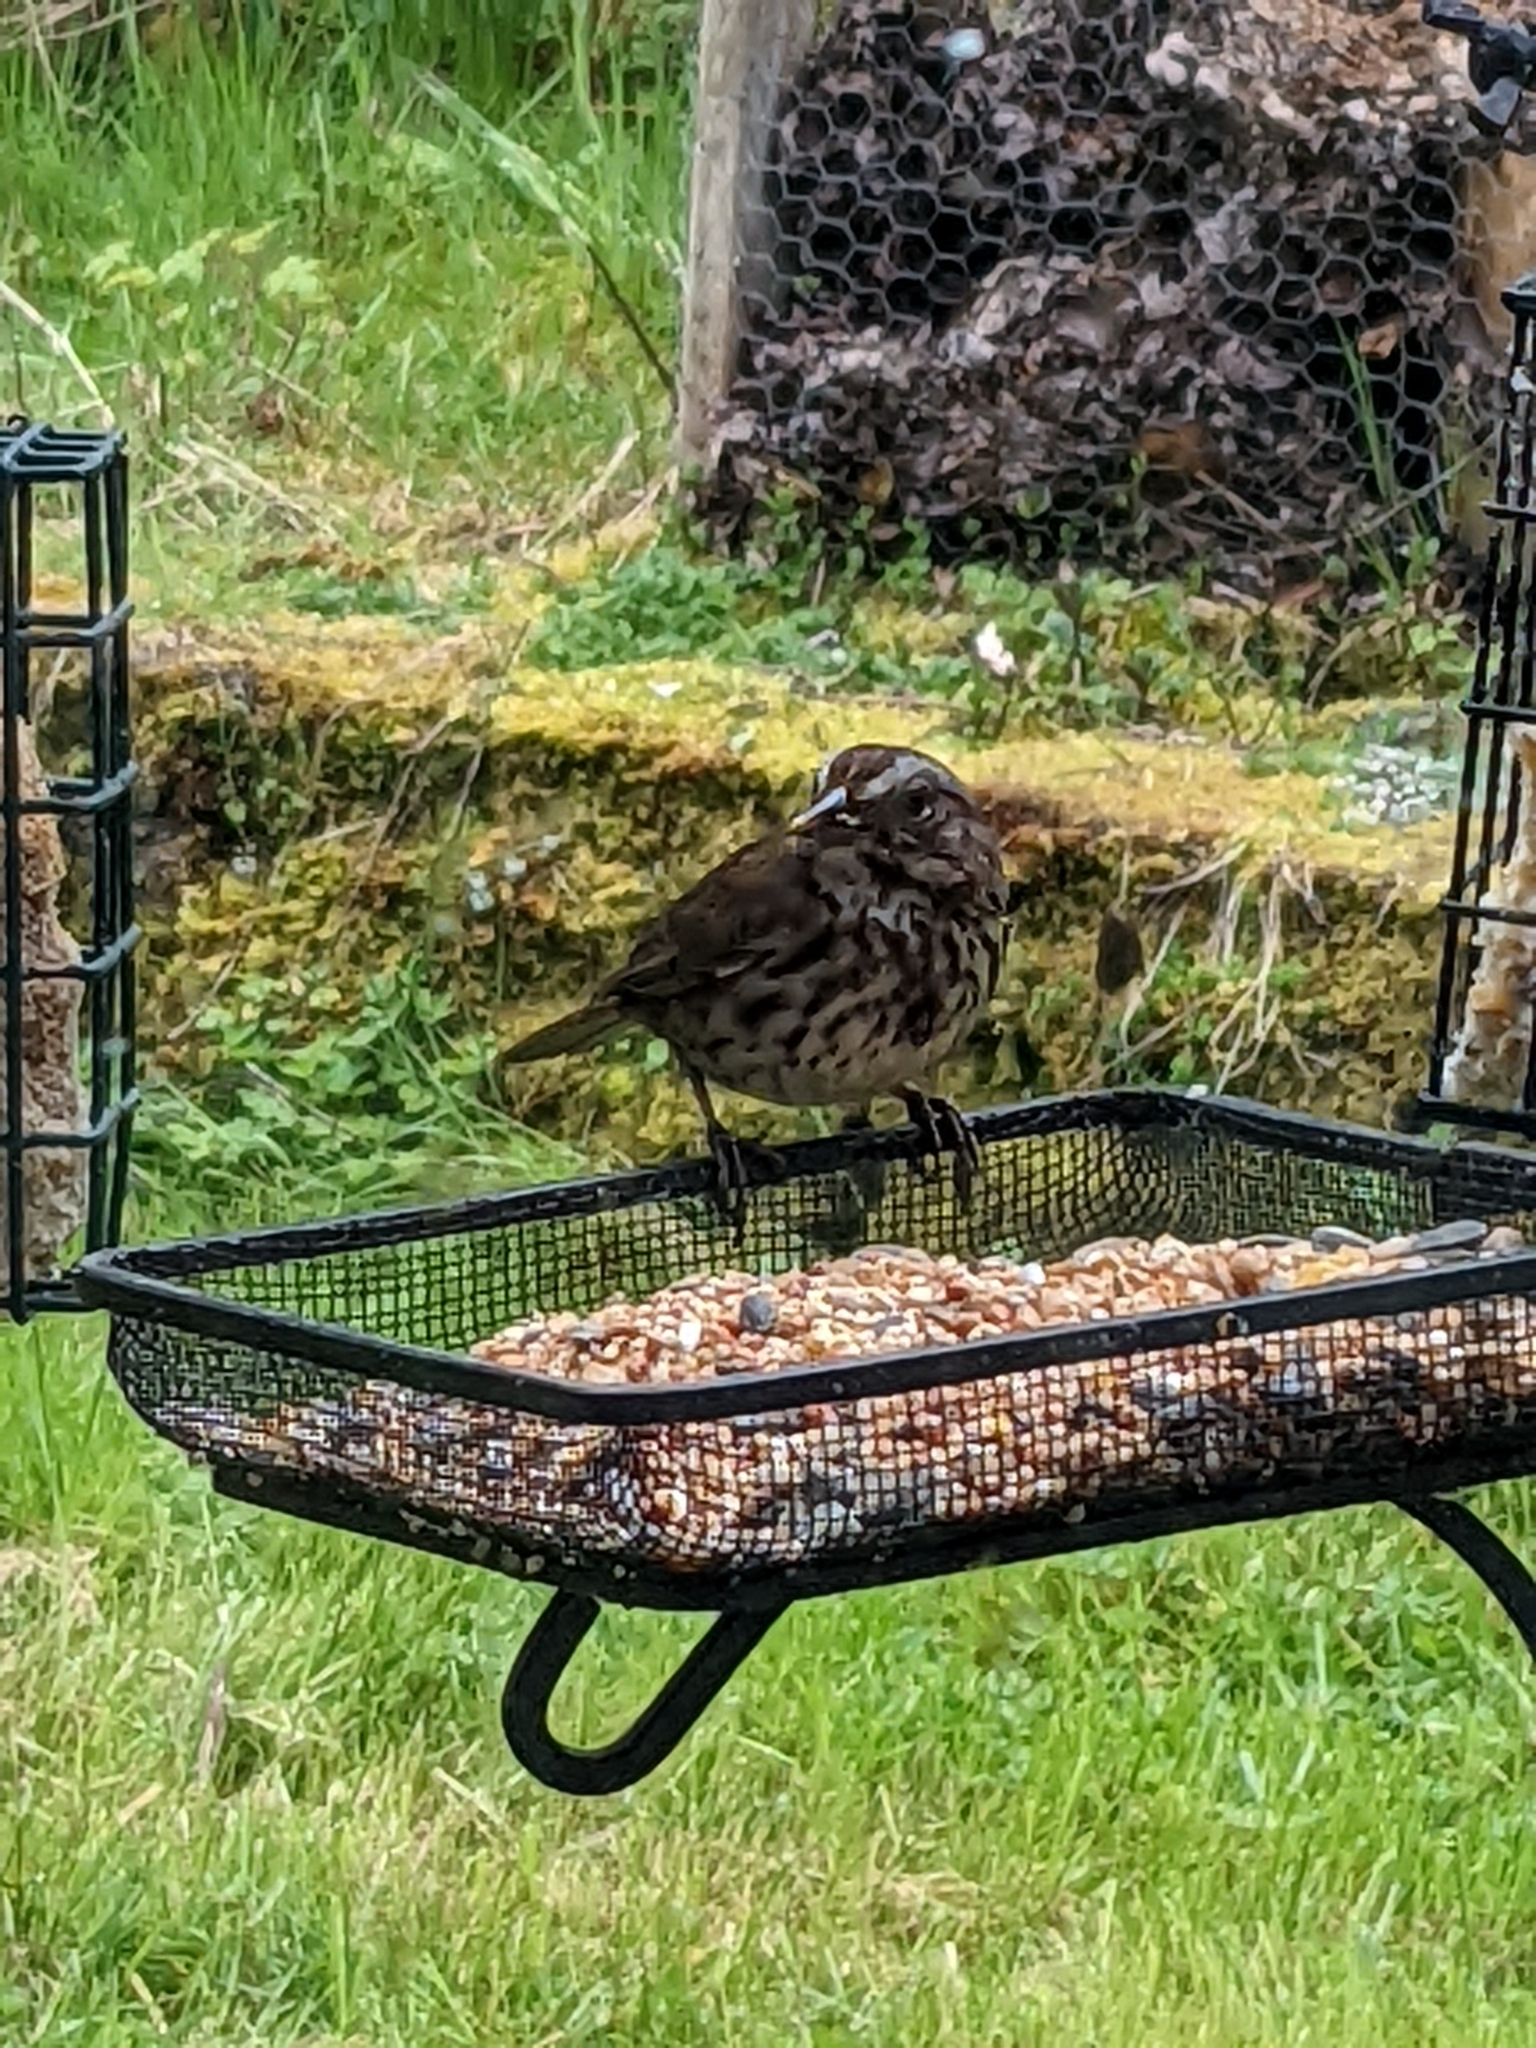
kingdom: Animalia
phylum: Chordata
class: Aves
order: Passeriformes
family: Passerellidae
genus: Melospiza
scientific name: Melospiza melodia
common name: Song sparrow
